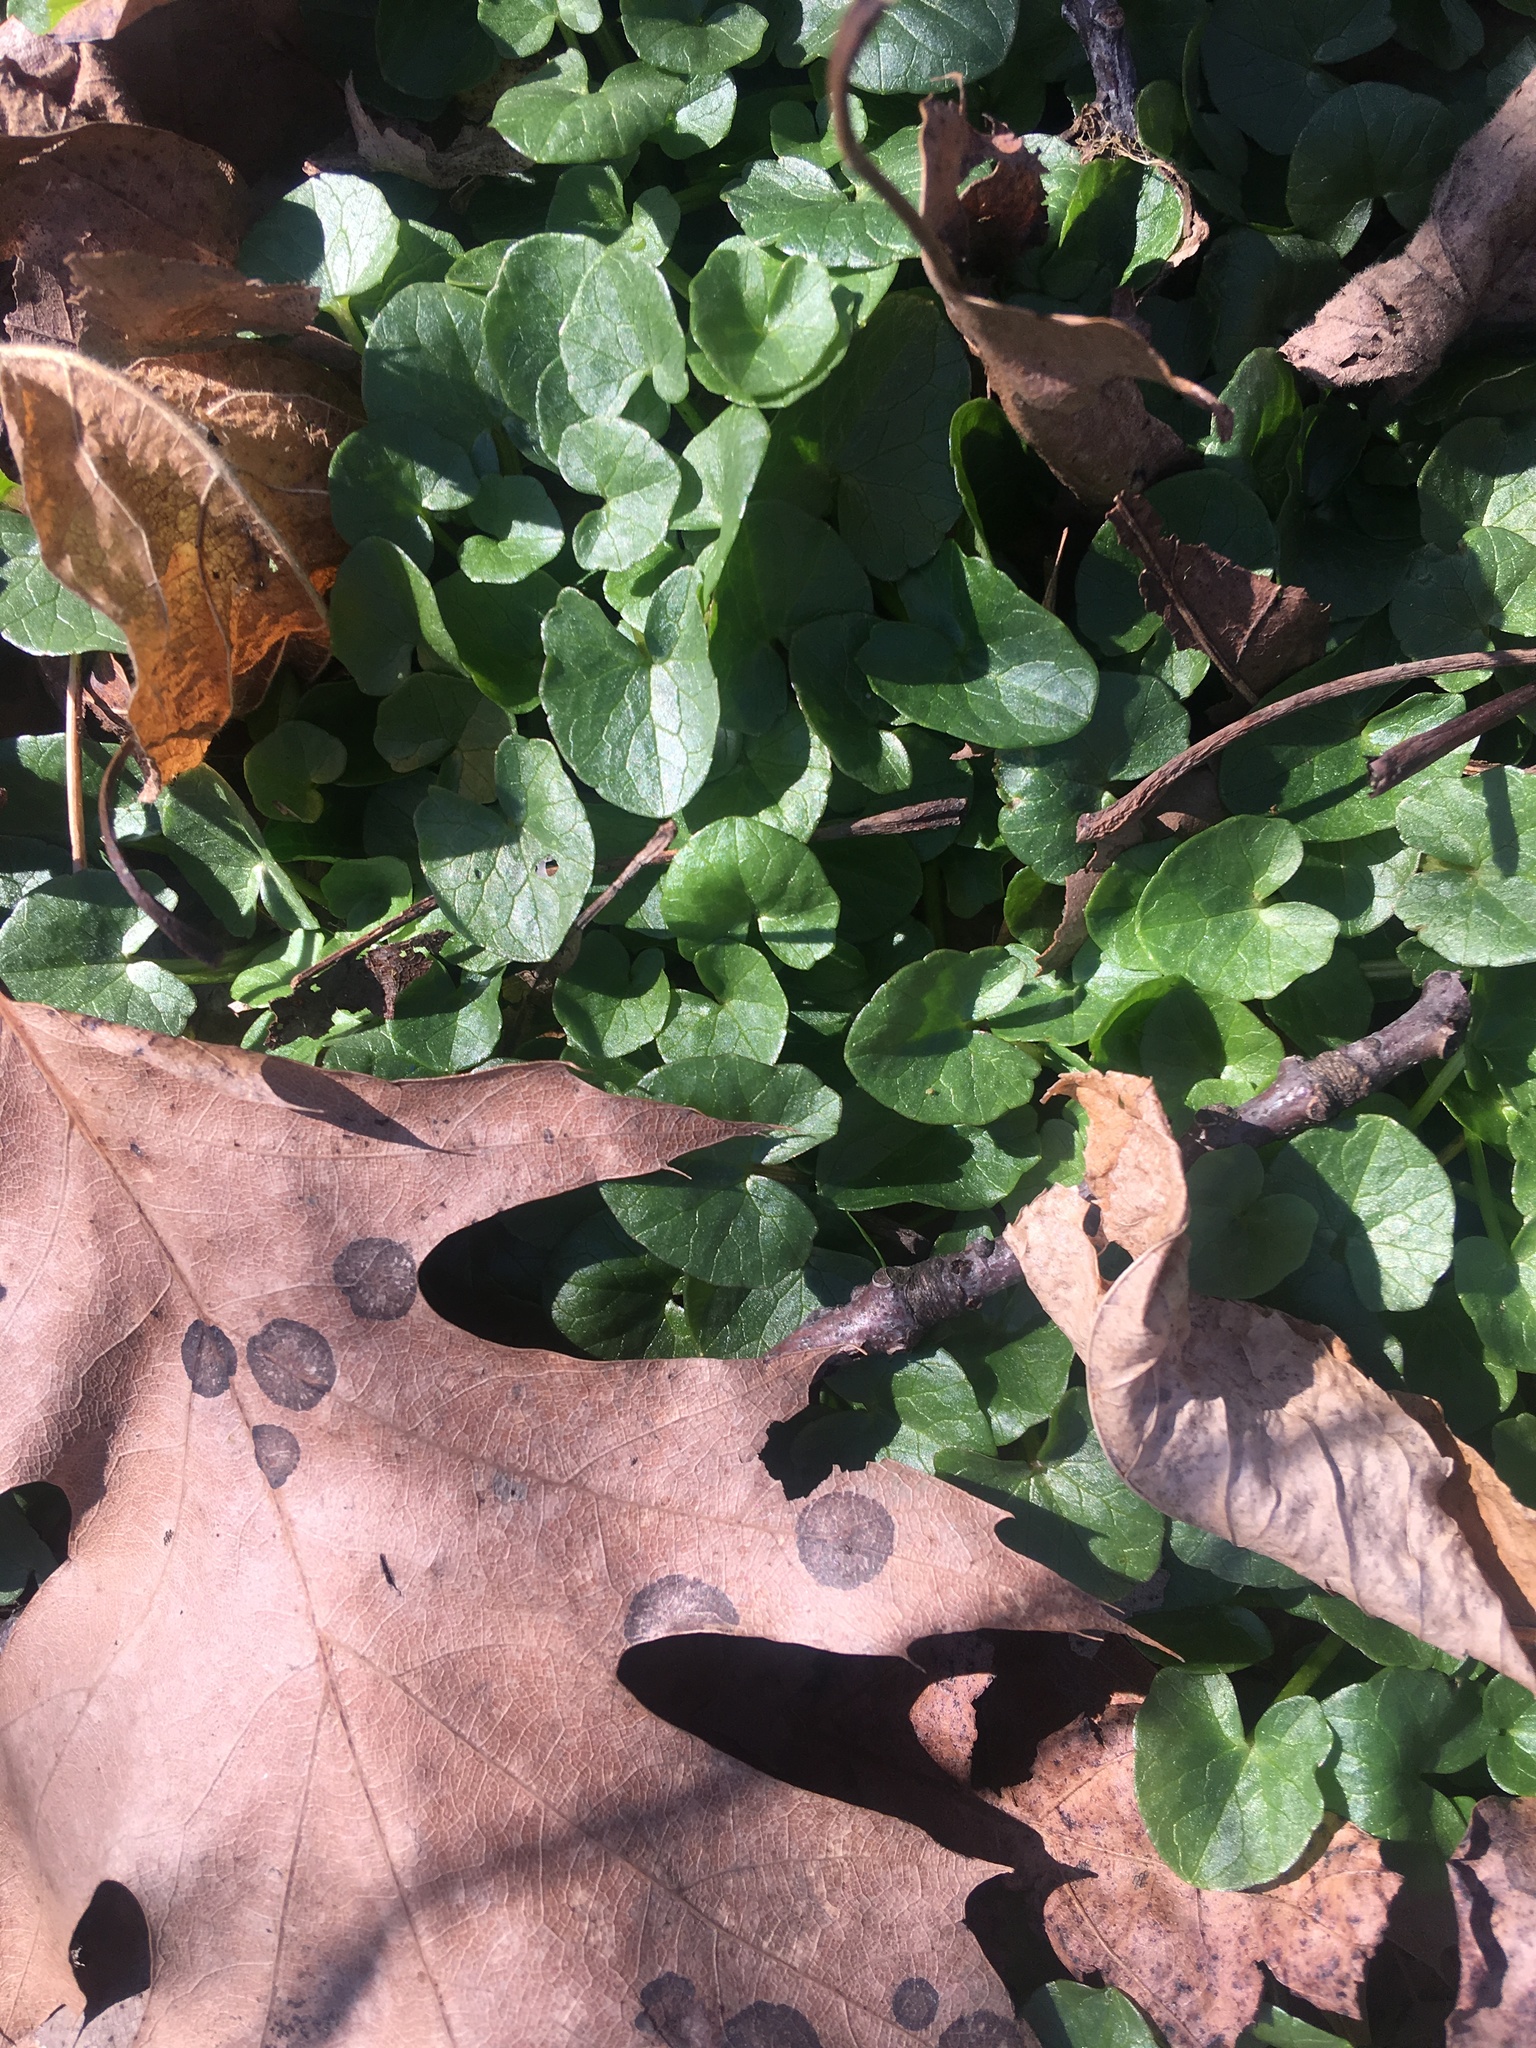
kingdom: Plantae
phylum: Tracheophyta
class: Magnoliopsida
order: Ranunculales
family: Ranunculaceae
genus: Ficaria
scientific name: Ficaria verna
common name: Lesser celandine
